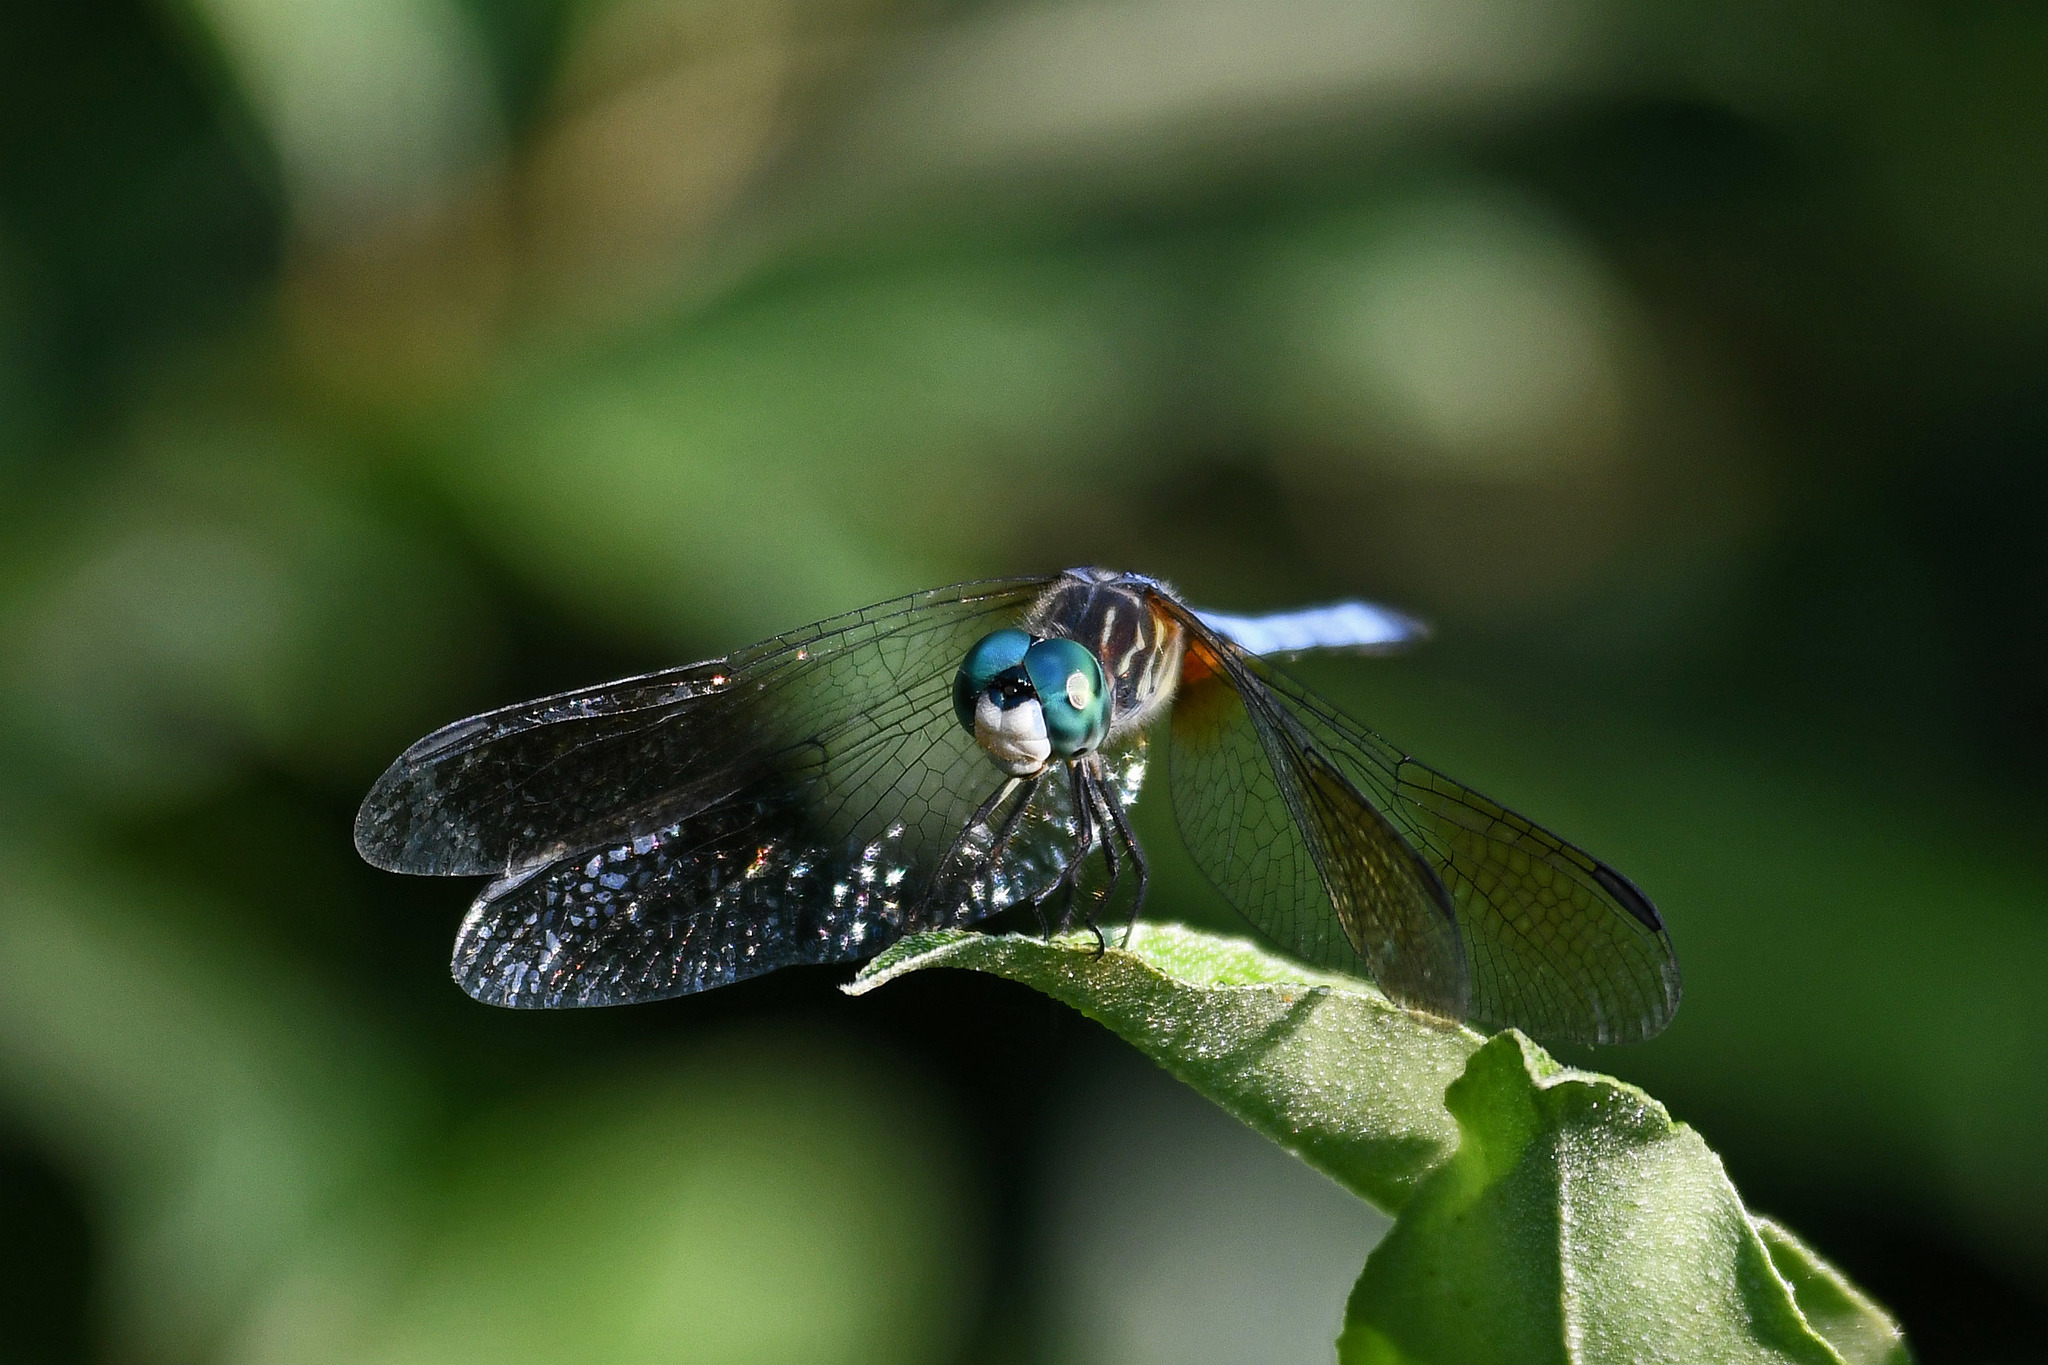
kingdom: Animalia
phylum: Arthropoda
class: Insecta
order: Odonata
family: Libellulidae
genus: Pachydiplax
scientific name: Pachydiplax longipennis
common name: Blue dasher
